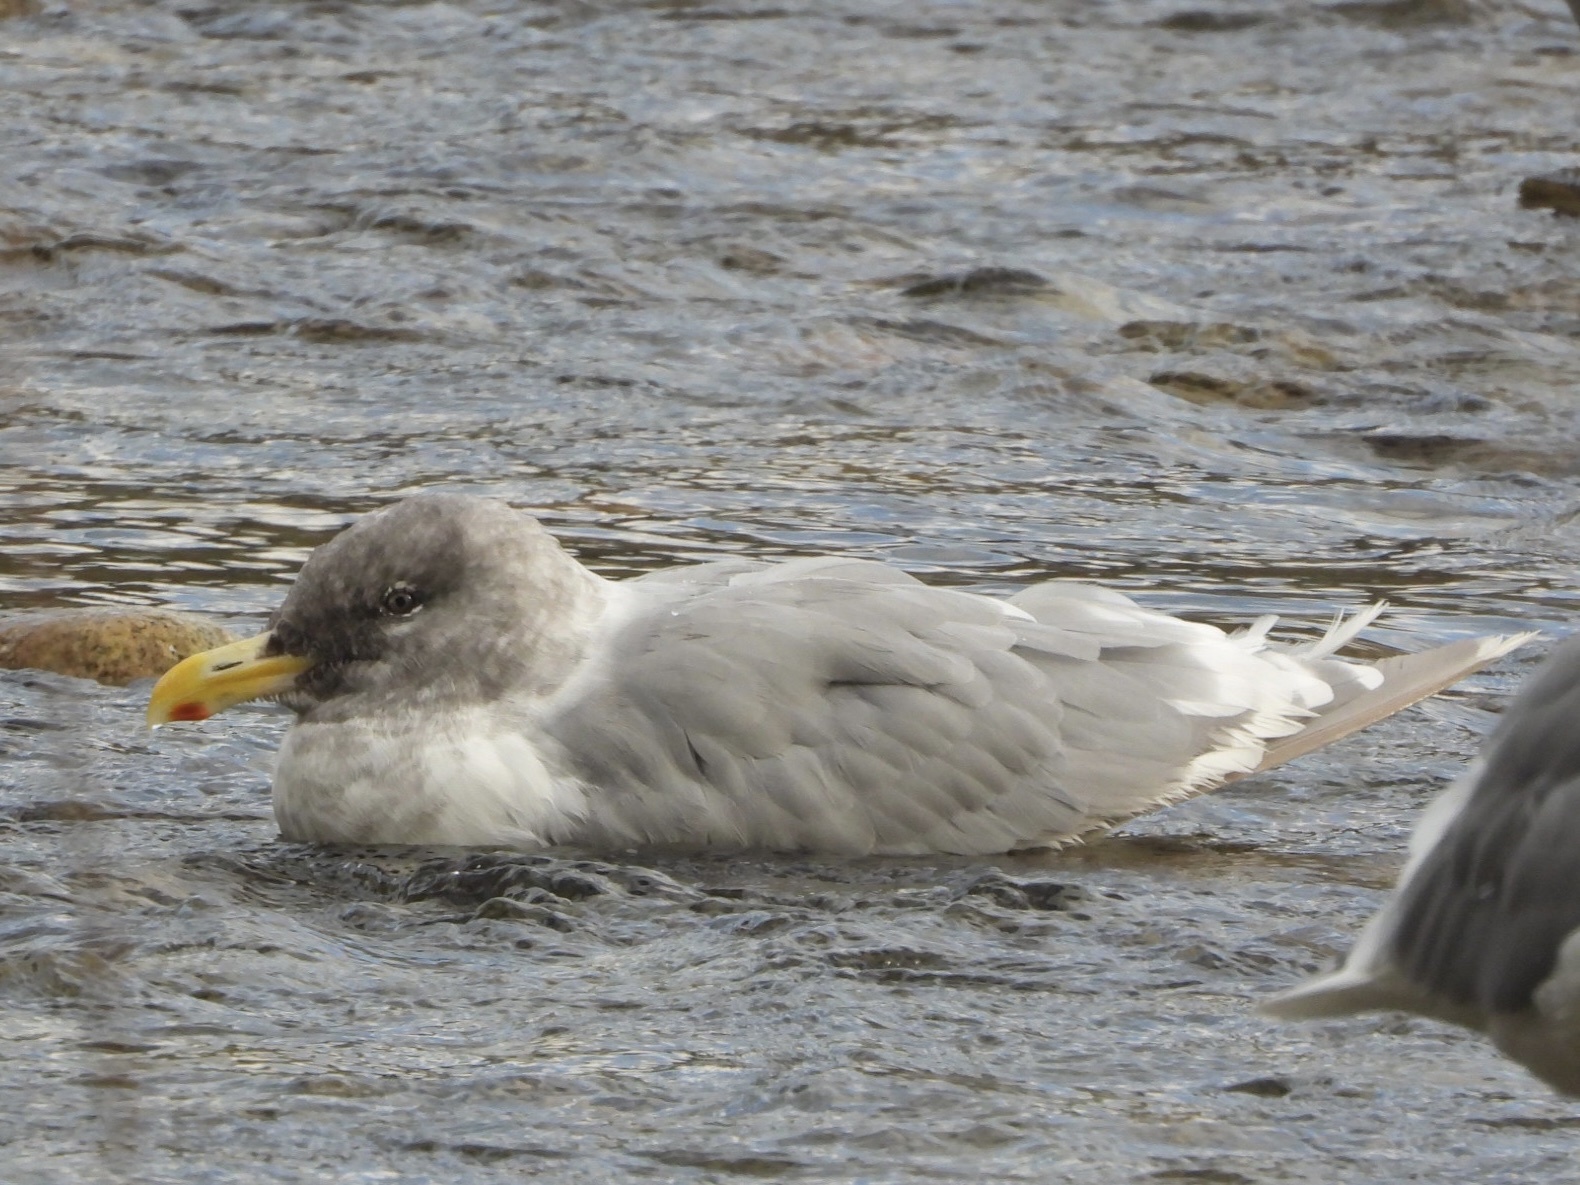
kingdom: Animalia
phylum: Chordata
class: Aves
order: Charadriiformes
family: Laridae
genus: Larus
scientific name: Larus glaucescens
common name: Glaucous-winged gull
